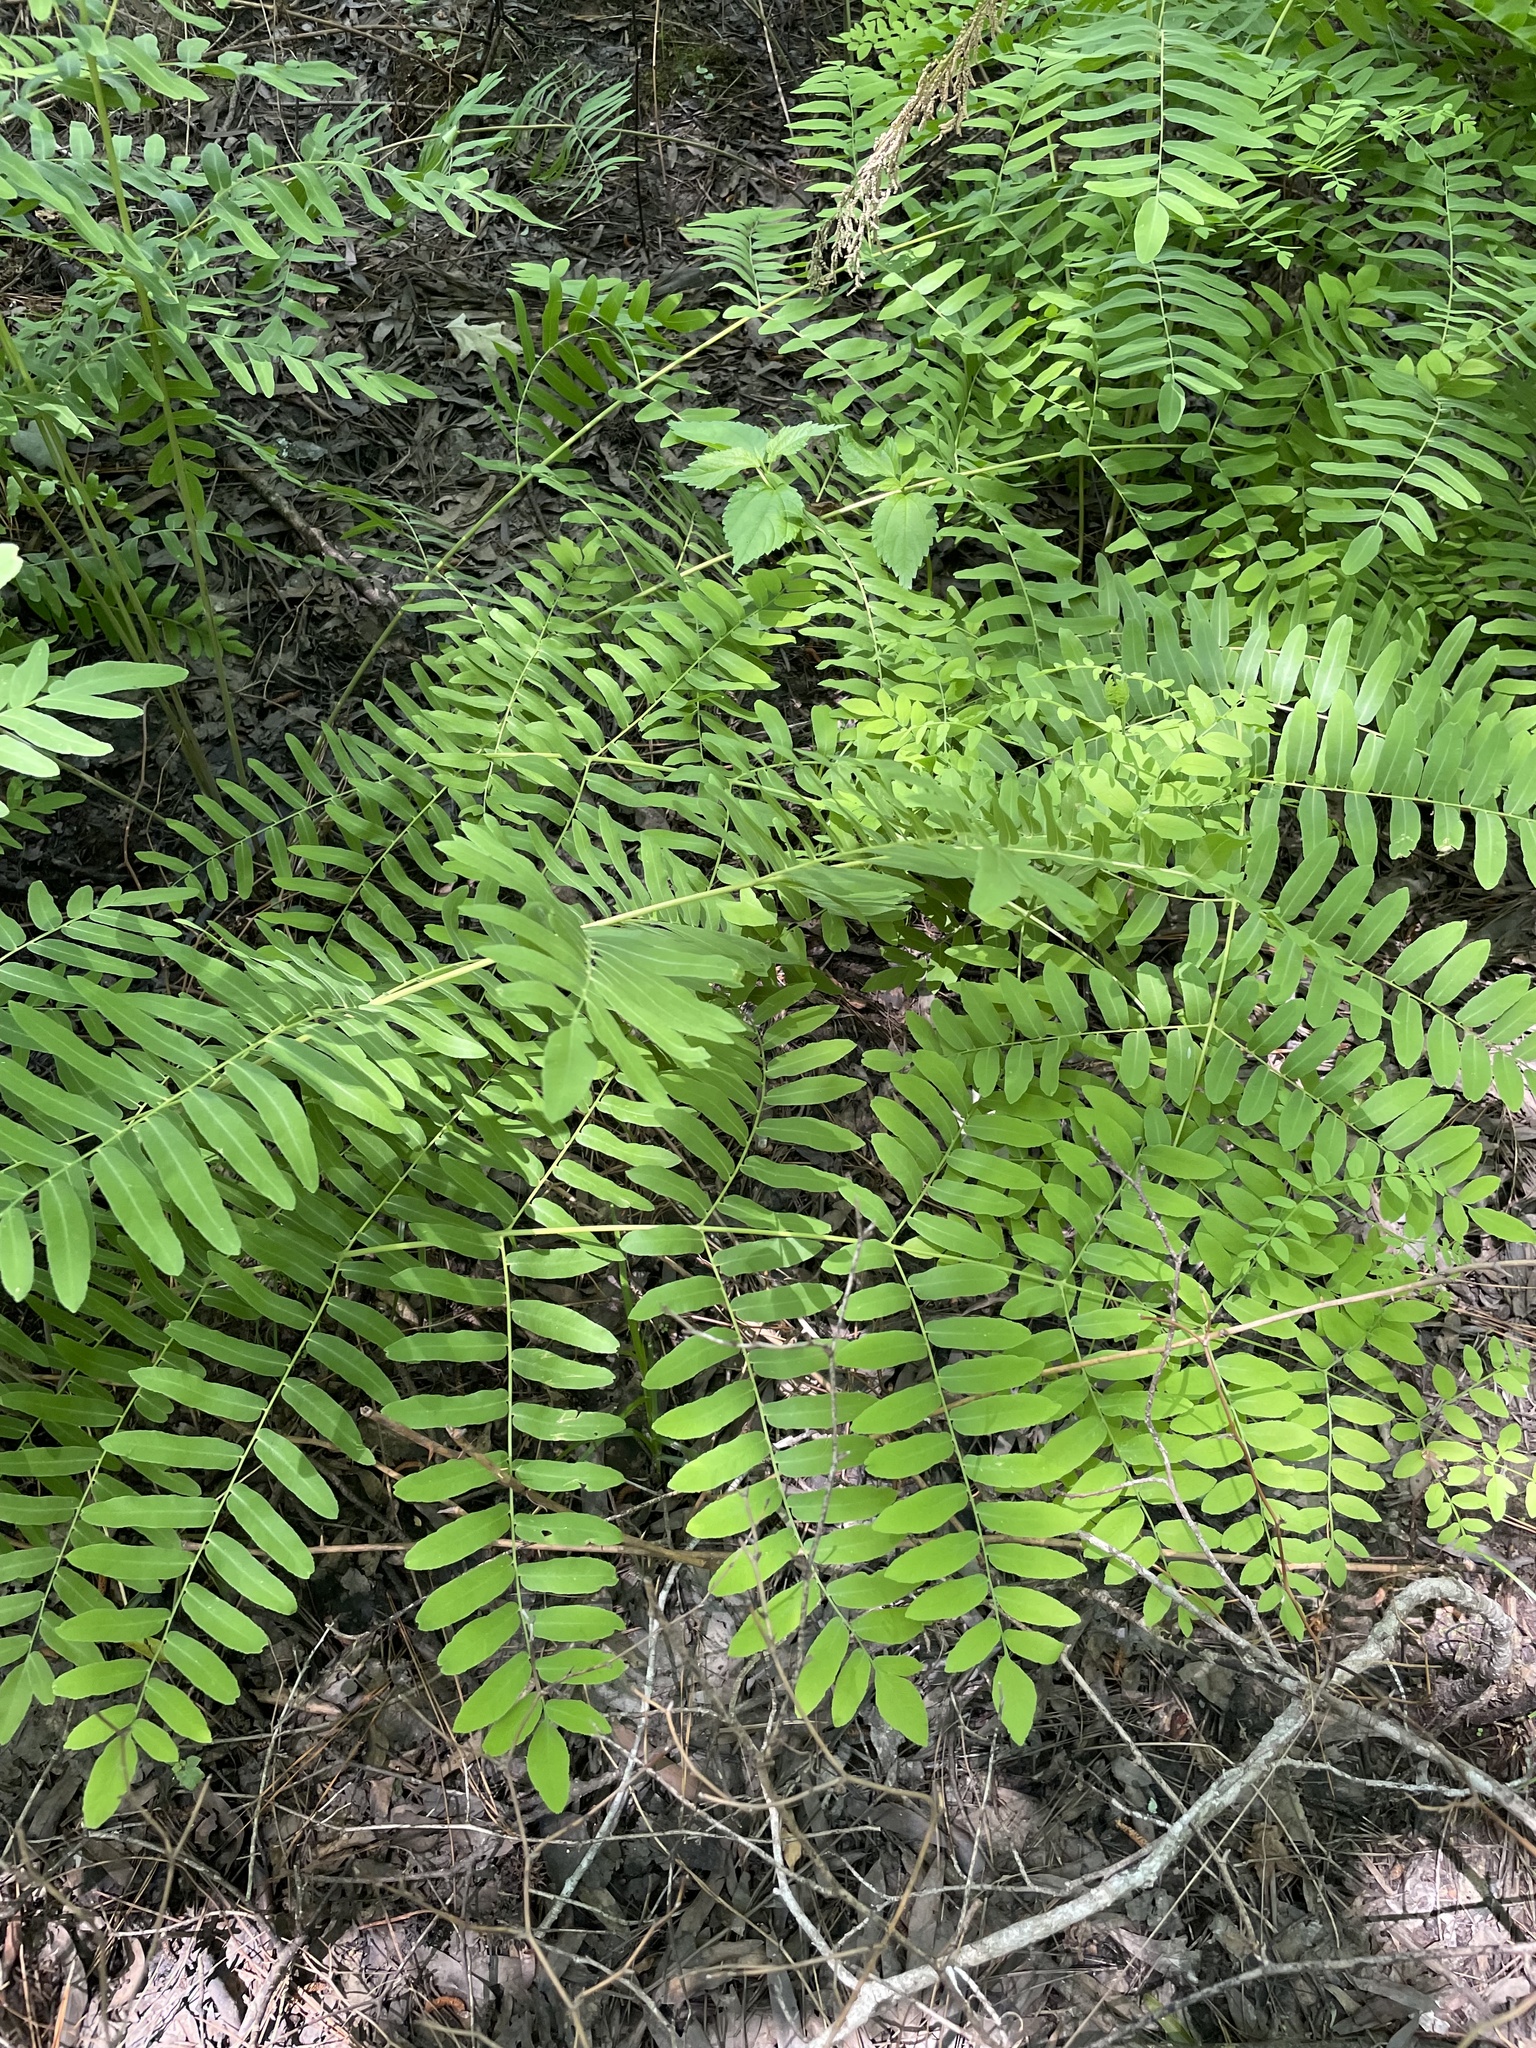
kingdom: Plantae
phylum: Tracheophyta
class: Polypodiopsida
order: Osmundales
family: Osmundaceae
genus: Osmunda
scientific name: Osmunda spectabilis
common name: American royal fern
